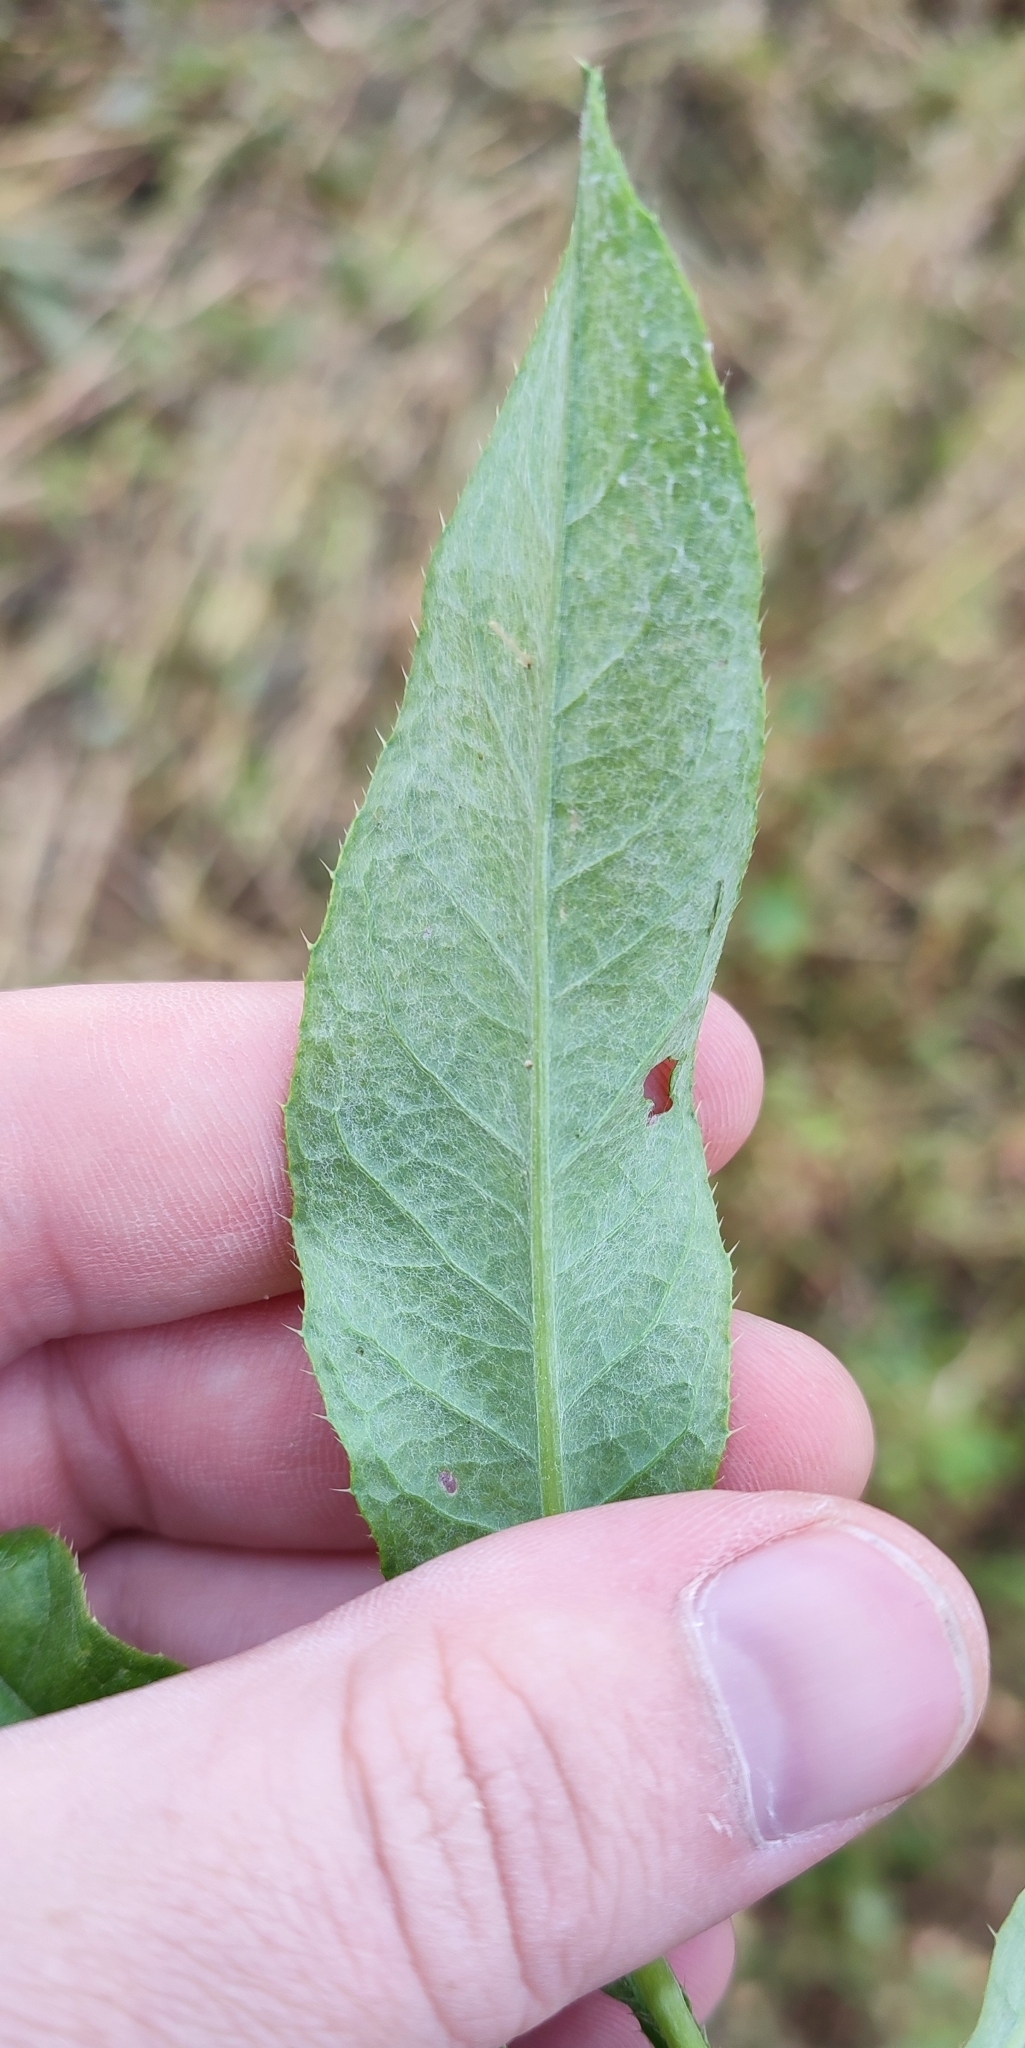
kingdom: Plantae
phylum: Tracheophyta
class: Magnoliopsida
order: Asterales
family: Asteraceae
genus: Cirsium
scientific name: Cirsium arvense
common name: Creeping thistle
